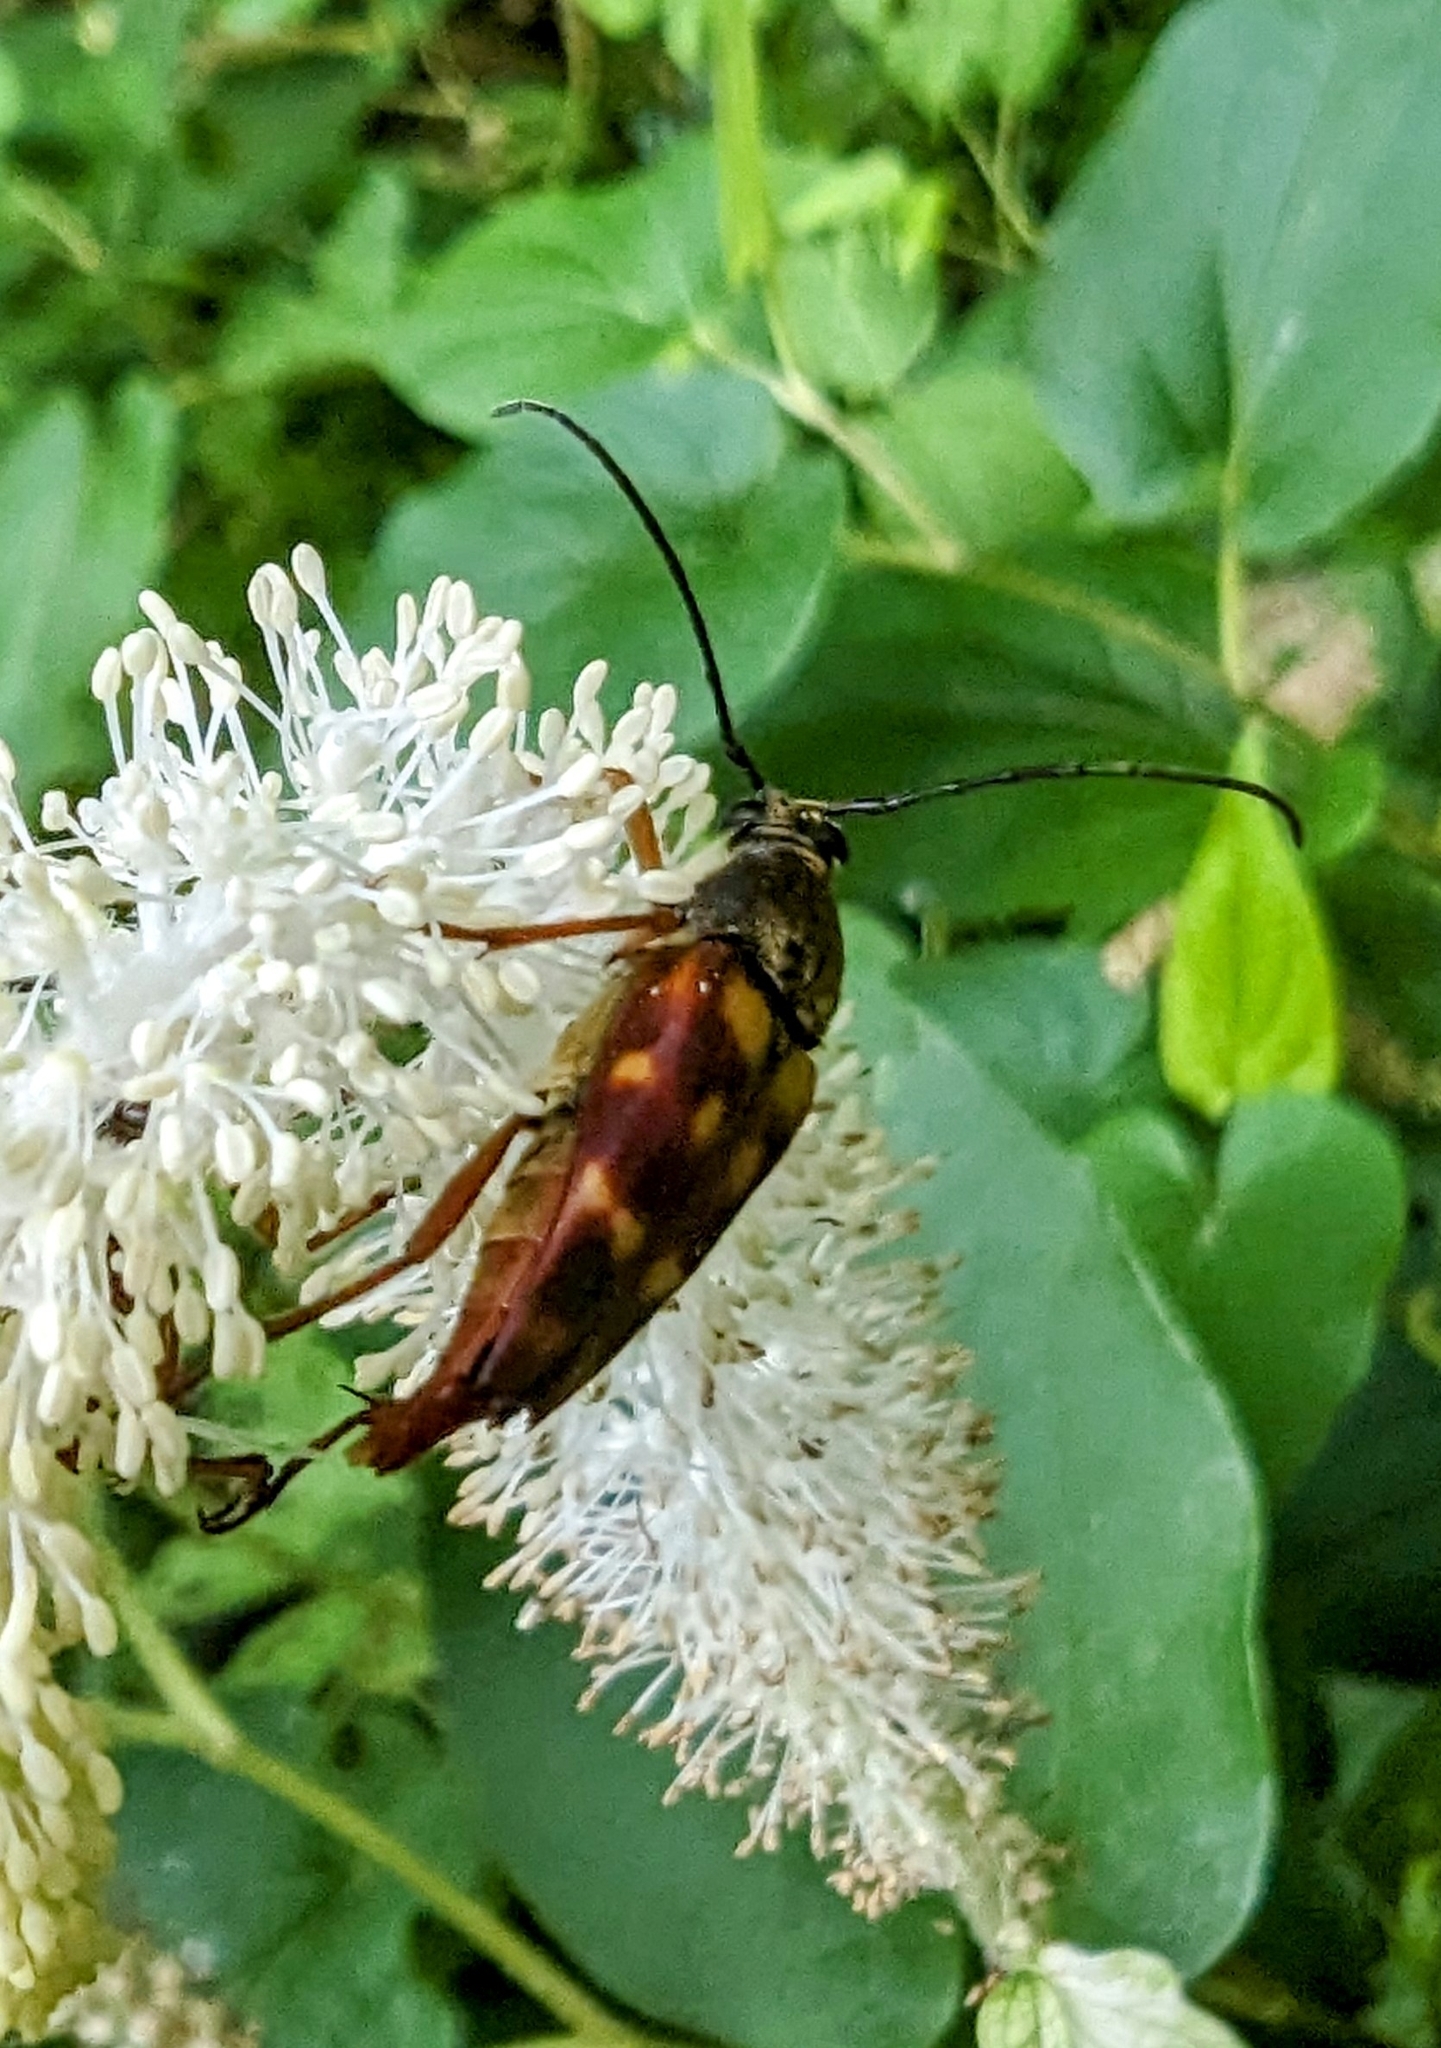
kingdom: Animalia
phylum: Arthropoda
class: Insecta
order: Coleoptera
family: Cerambycidae
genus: Typocerus
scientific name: Typocerus velutinus
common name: Banded longhorn beetle
